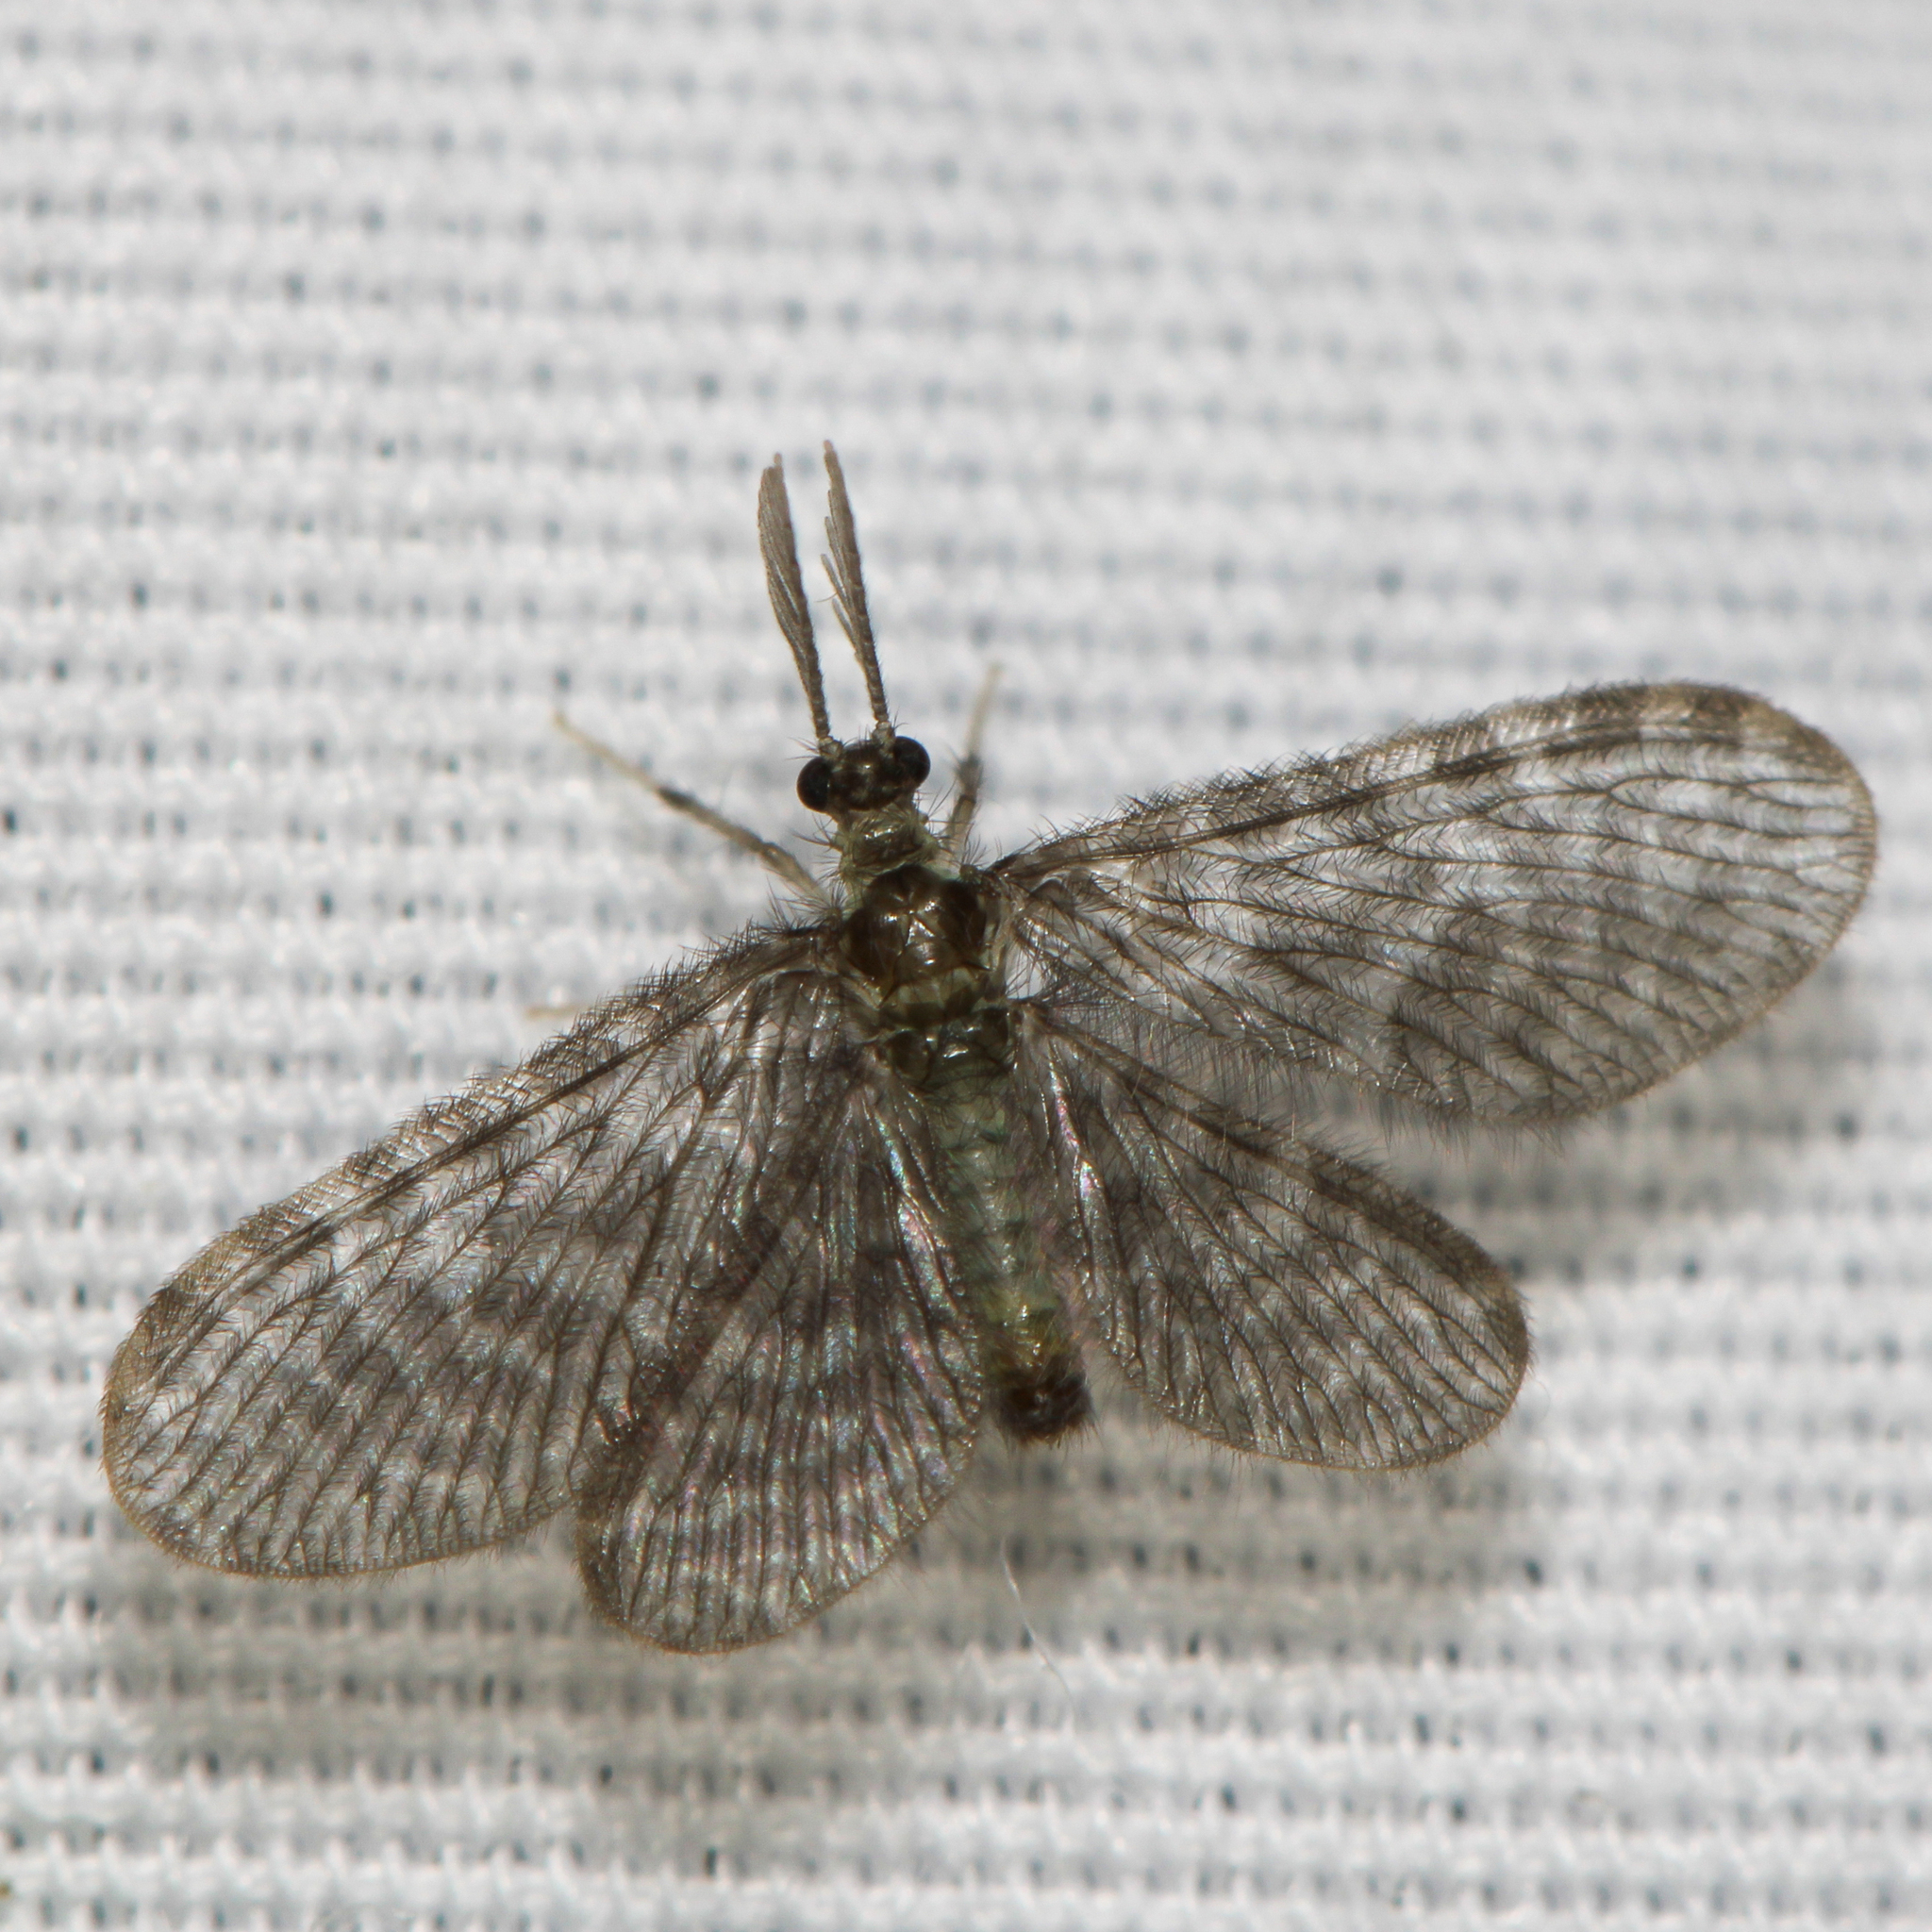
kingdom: Animalia
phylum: Arthropoda
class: Insecta
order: Neuroptera
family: Dilaridae
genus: Nallachius
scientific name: Nallachius americanus
